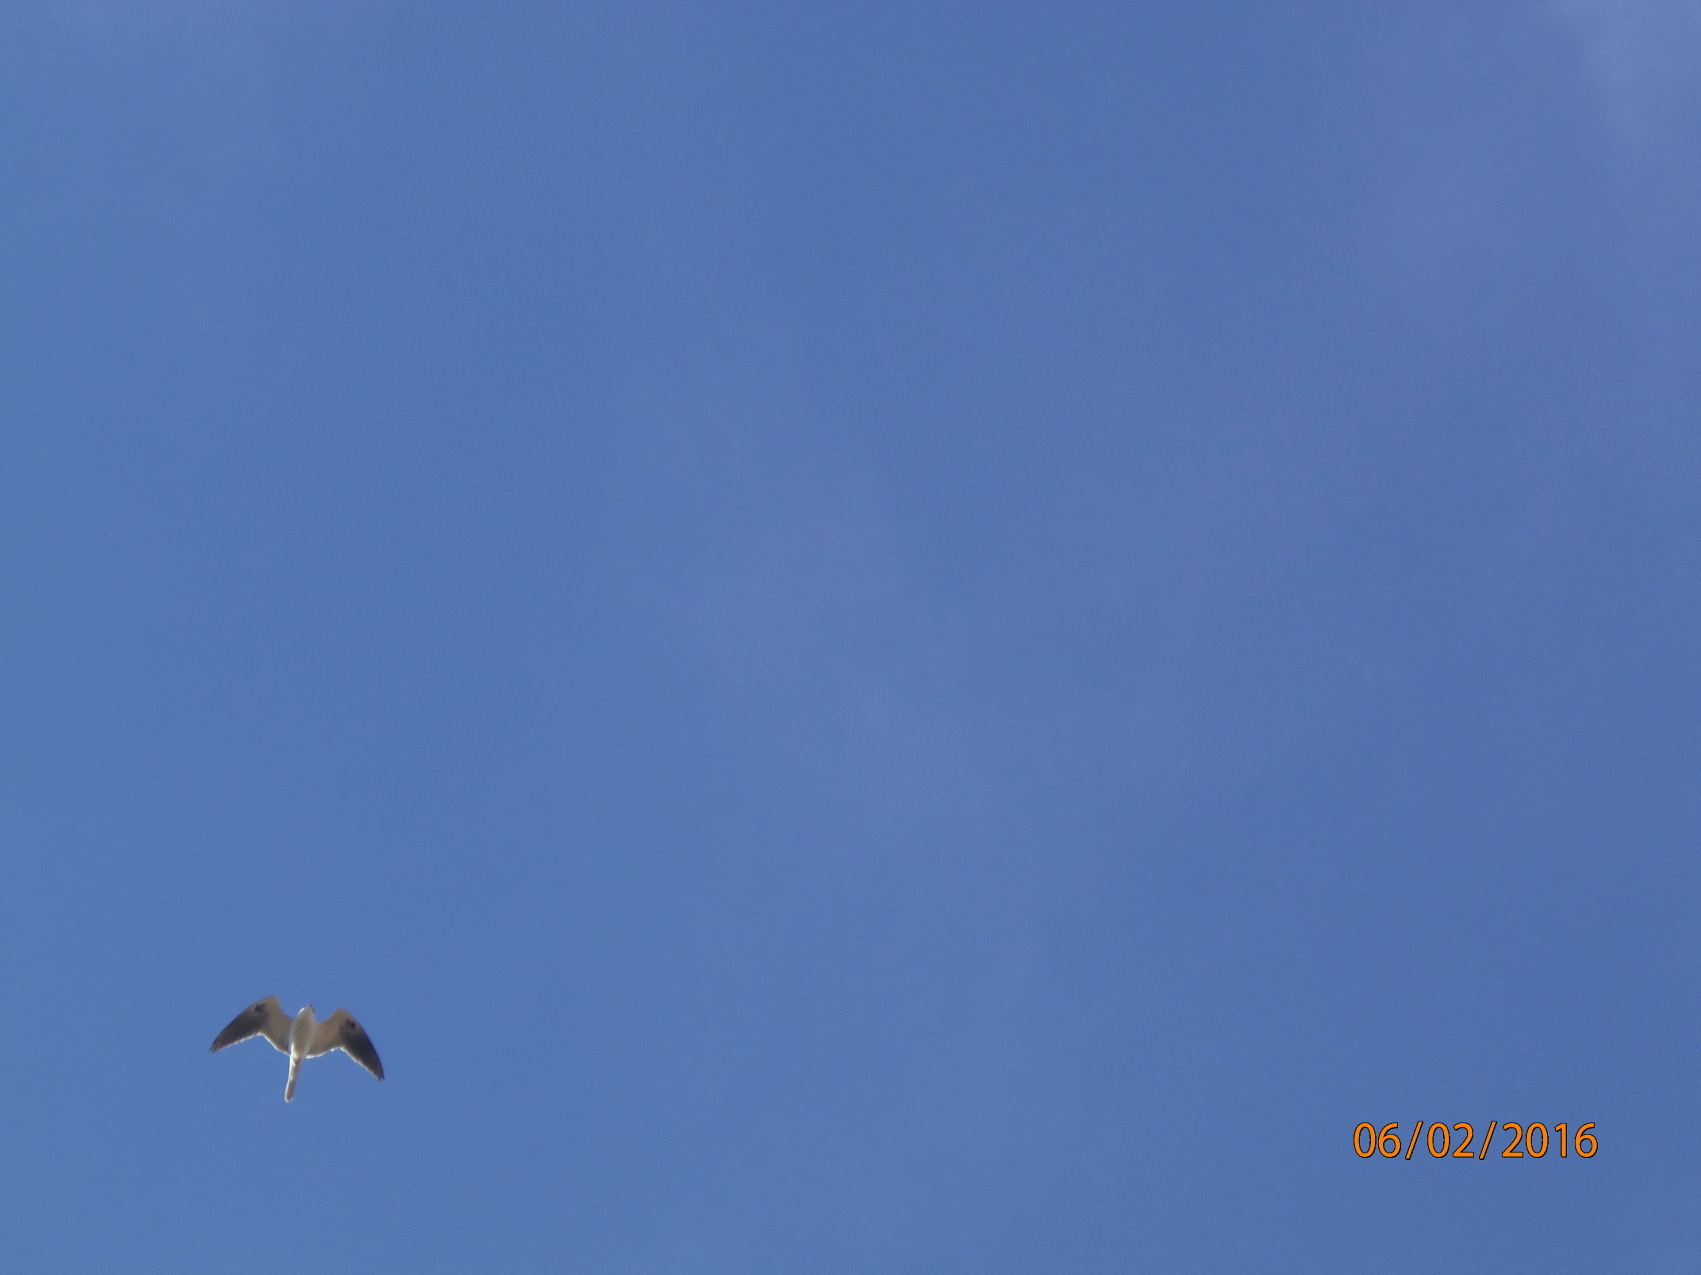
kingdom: Animalia
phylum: Chordata
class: Aves
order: Accipitriformes
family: Accipitridae
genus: Elanus
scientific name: Elanus leucurus
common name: White-tailed kite
